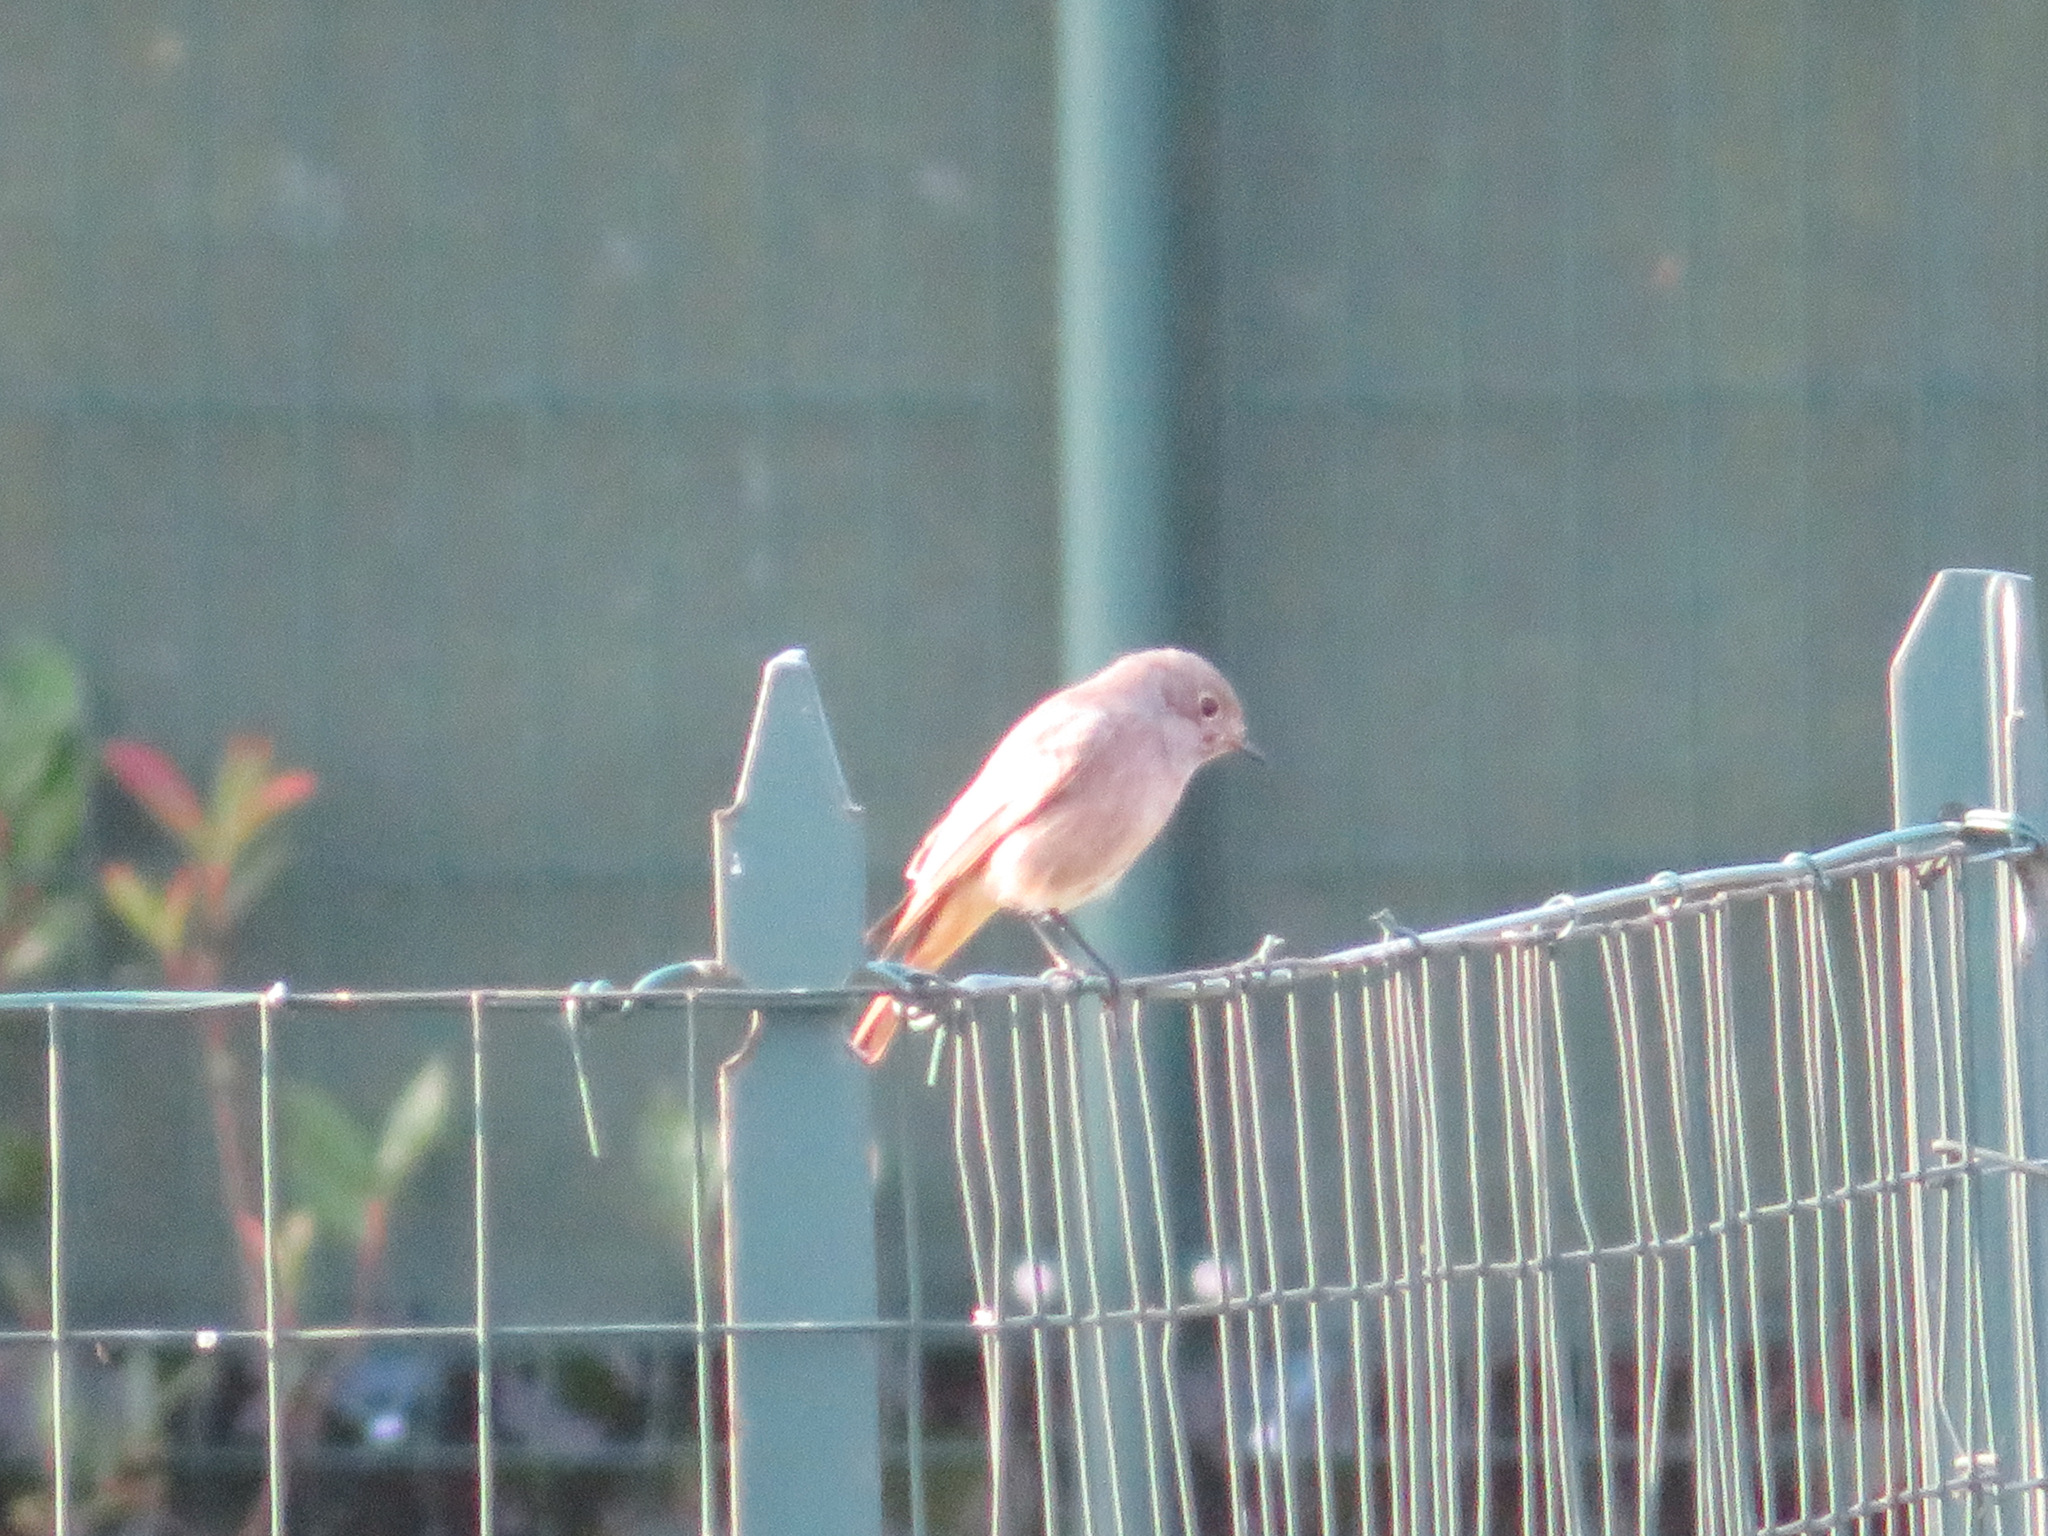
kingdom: Animalia
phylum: Chordata
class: Aves
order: Passeriformes
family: Muscicapidae
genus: Phoenicurus
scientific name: Phoenicurus ochruros
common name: Black redstart
